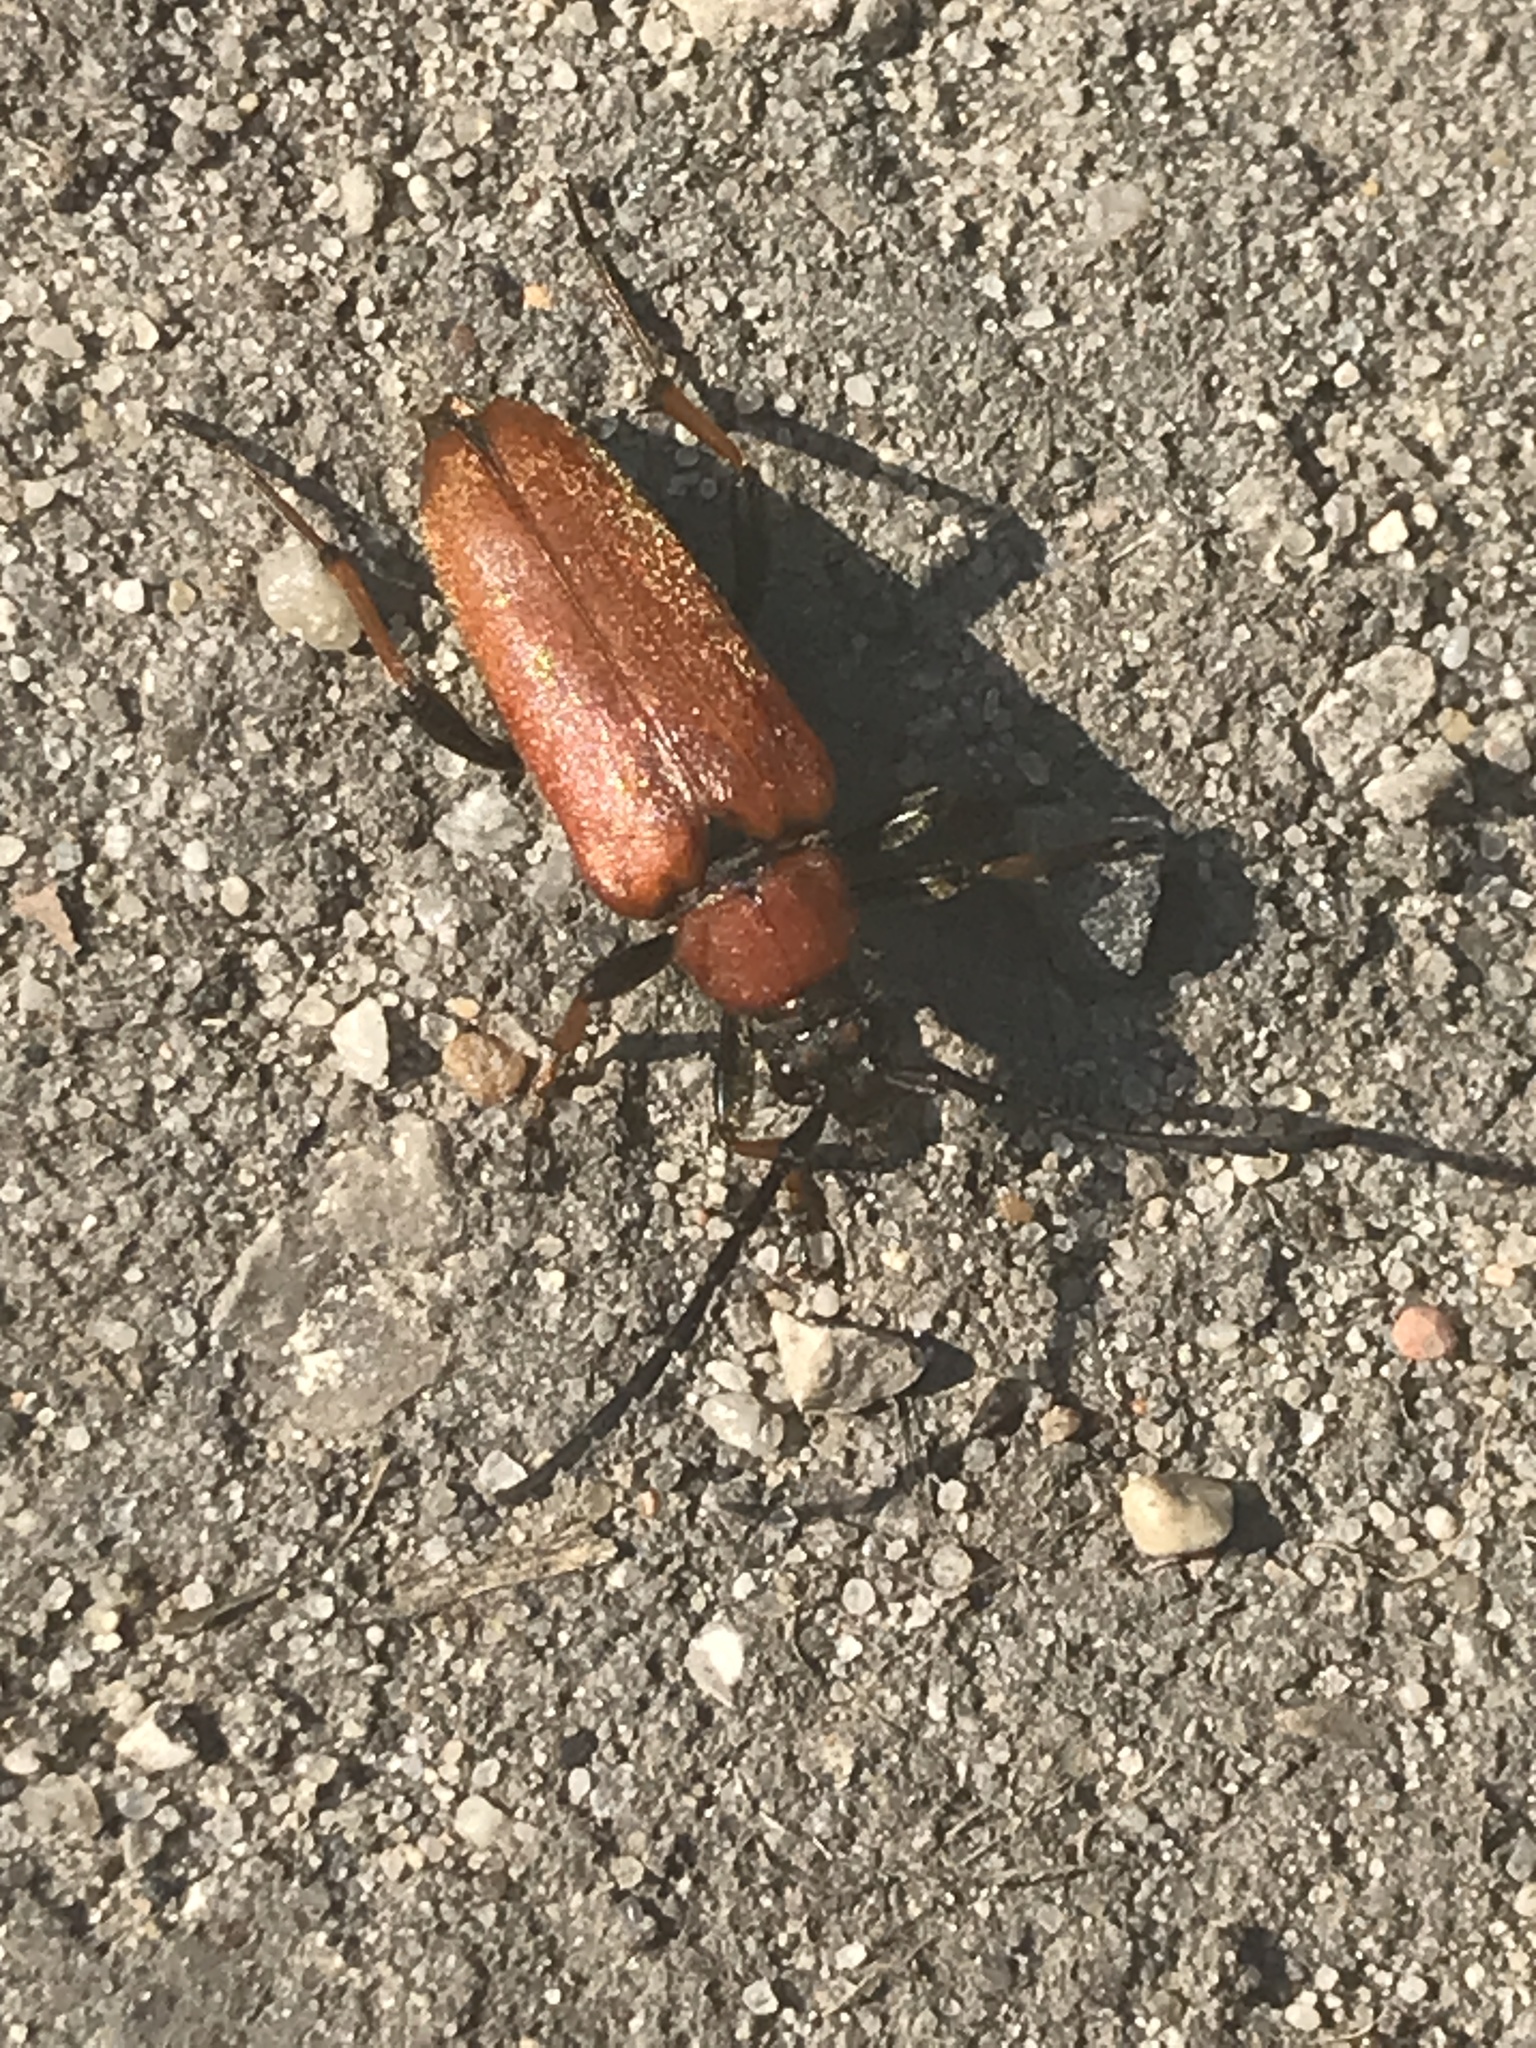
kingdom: Animalia
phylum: Arthropoda
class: Insecta
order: Coleoptera
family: Cerambycidae
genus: Stictoleptura
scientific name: Stictoleptura rubra
